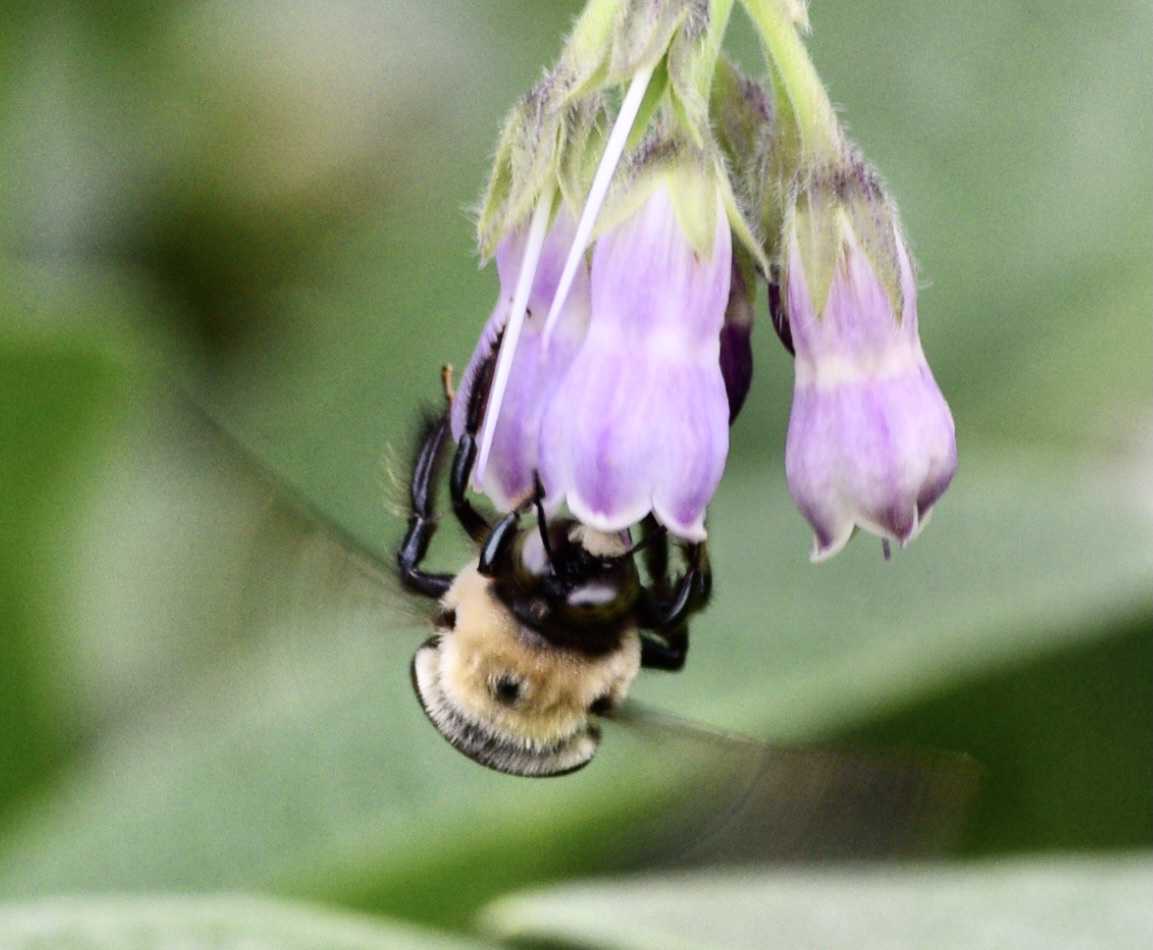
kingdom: Animalia
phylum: Arthropoda
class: Insecta
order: Hymenoptera
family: Apidae
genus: Xylocopa
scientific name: Xylocopa virginica
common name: Carpenter bee
